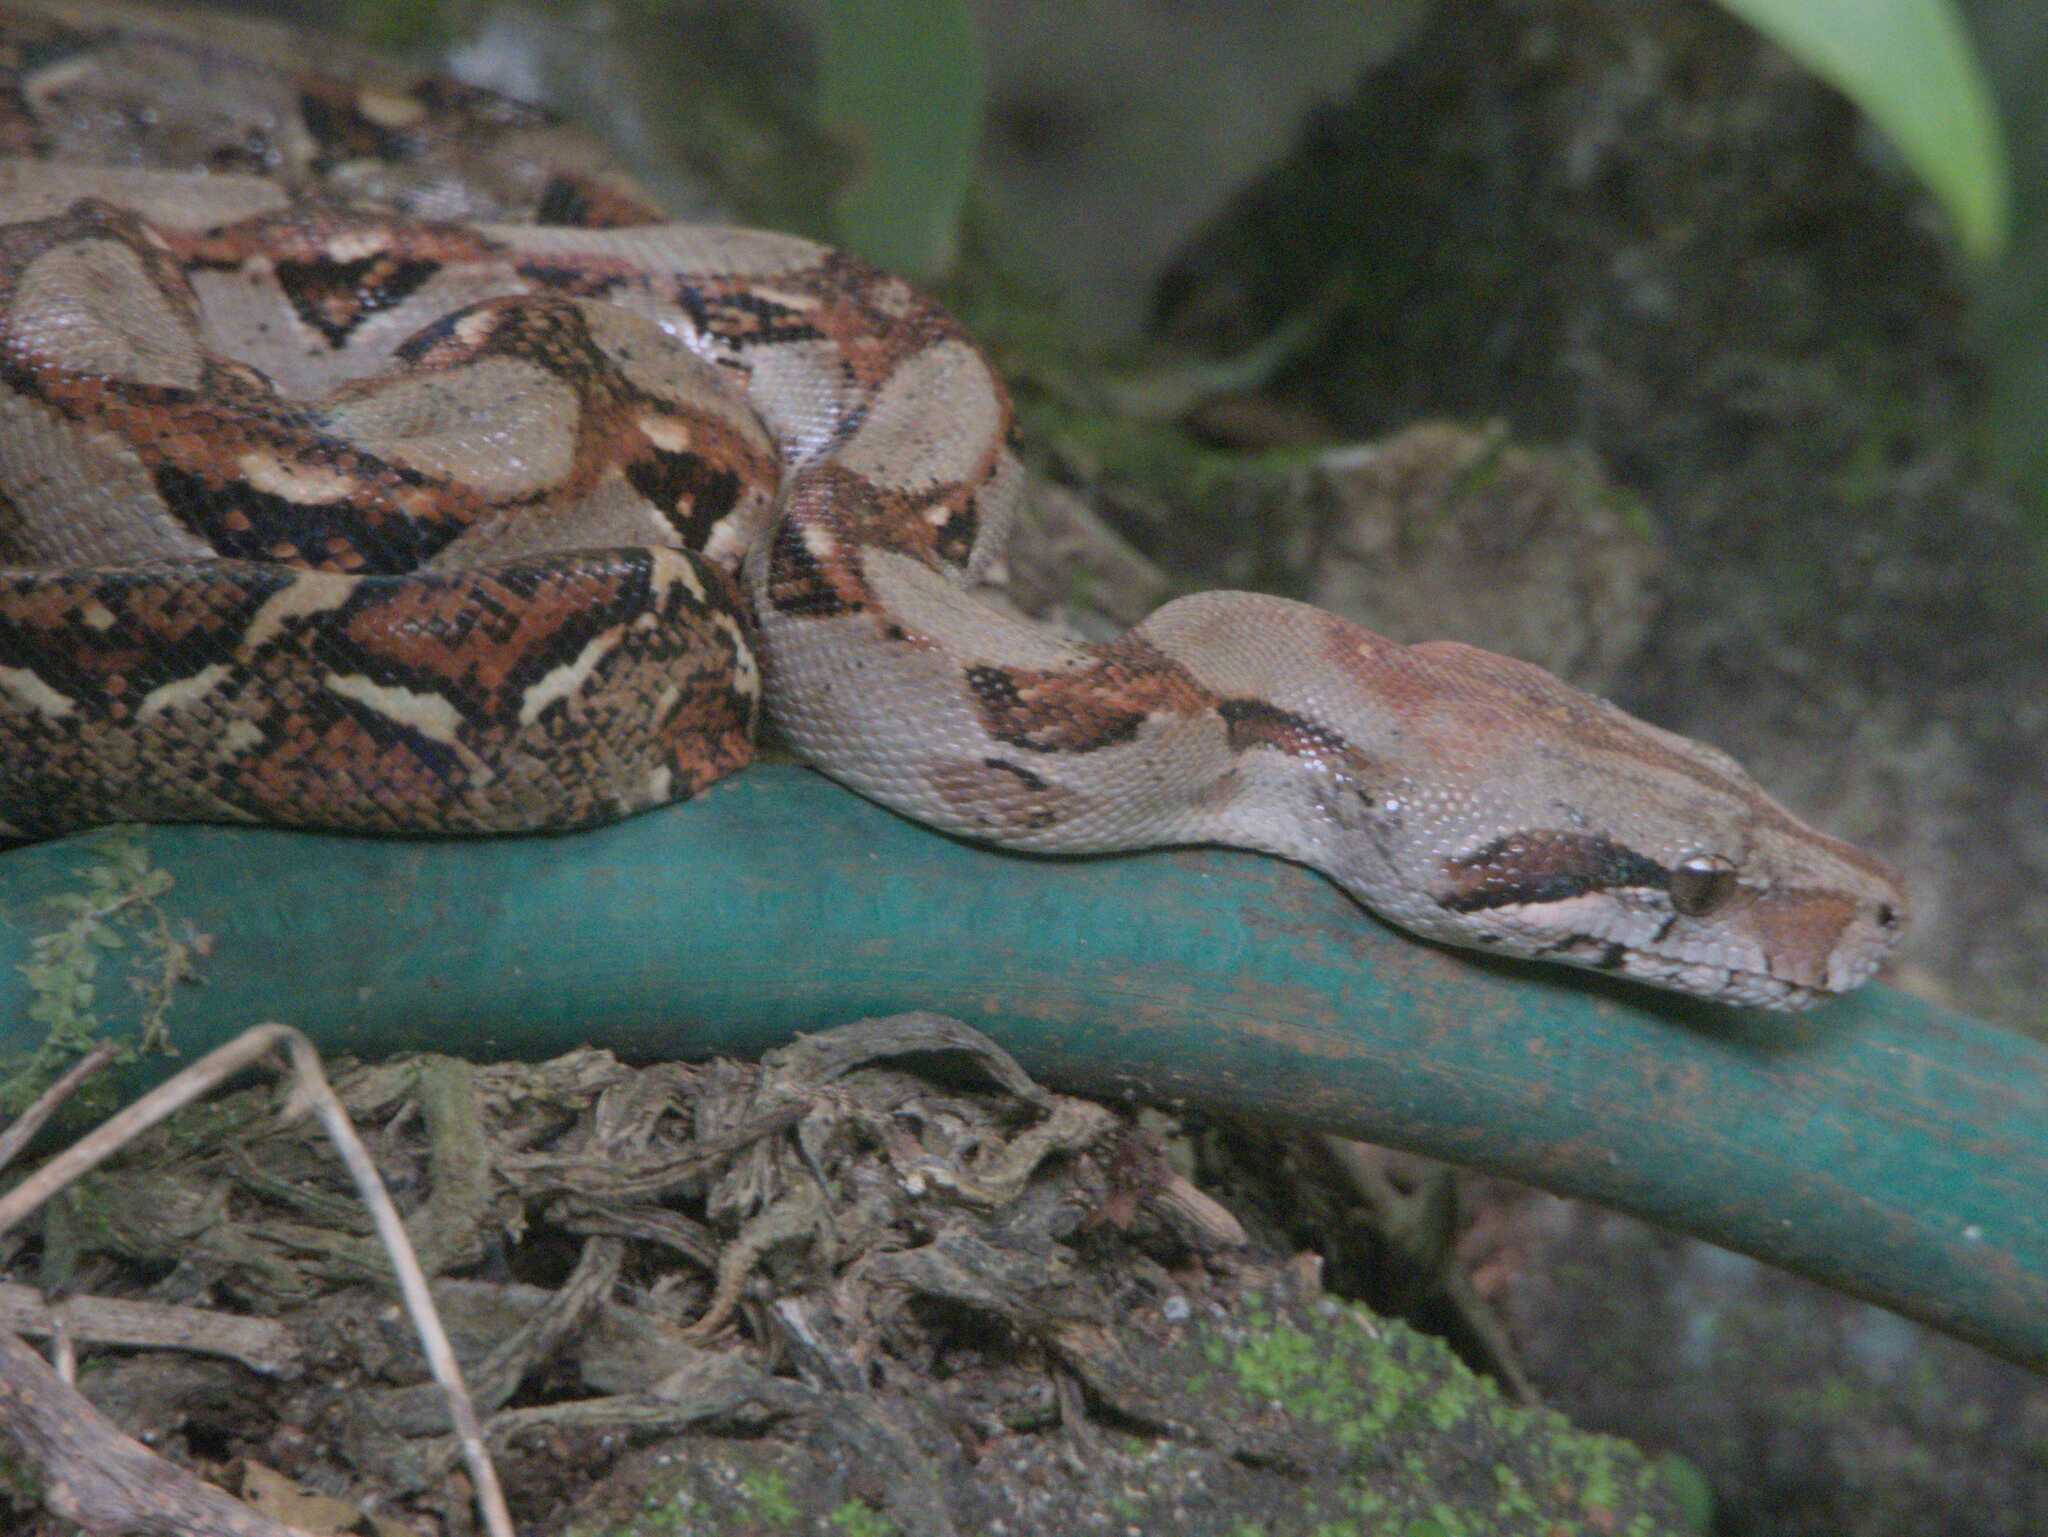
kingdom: Animalia
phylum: Chordata
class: Squamata
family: Boidae
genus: Boa
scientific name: Boa imperator
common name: Central american boa
